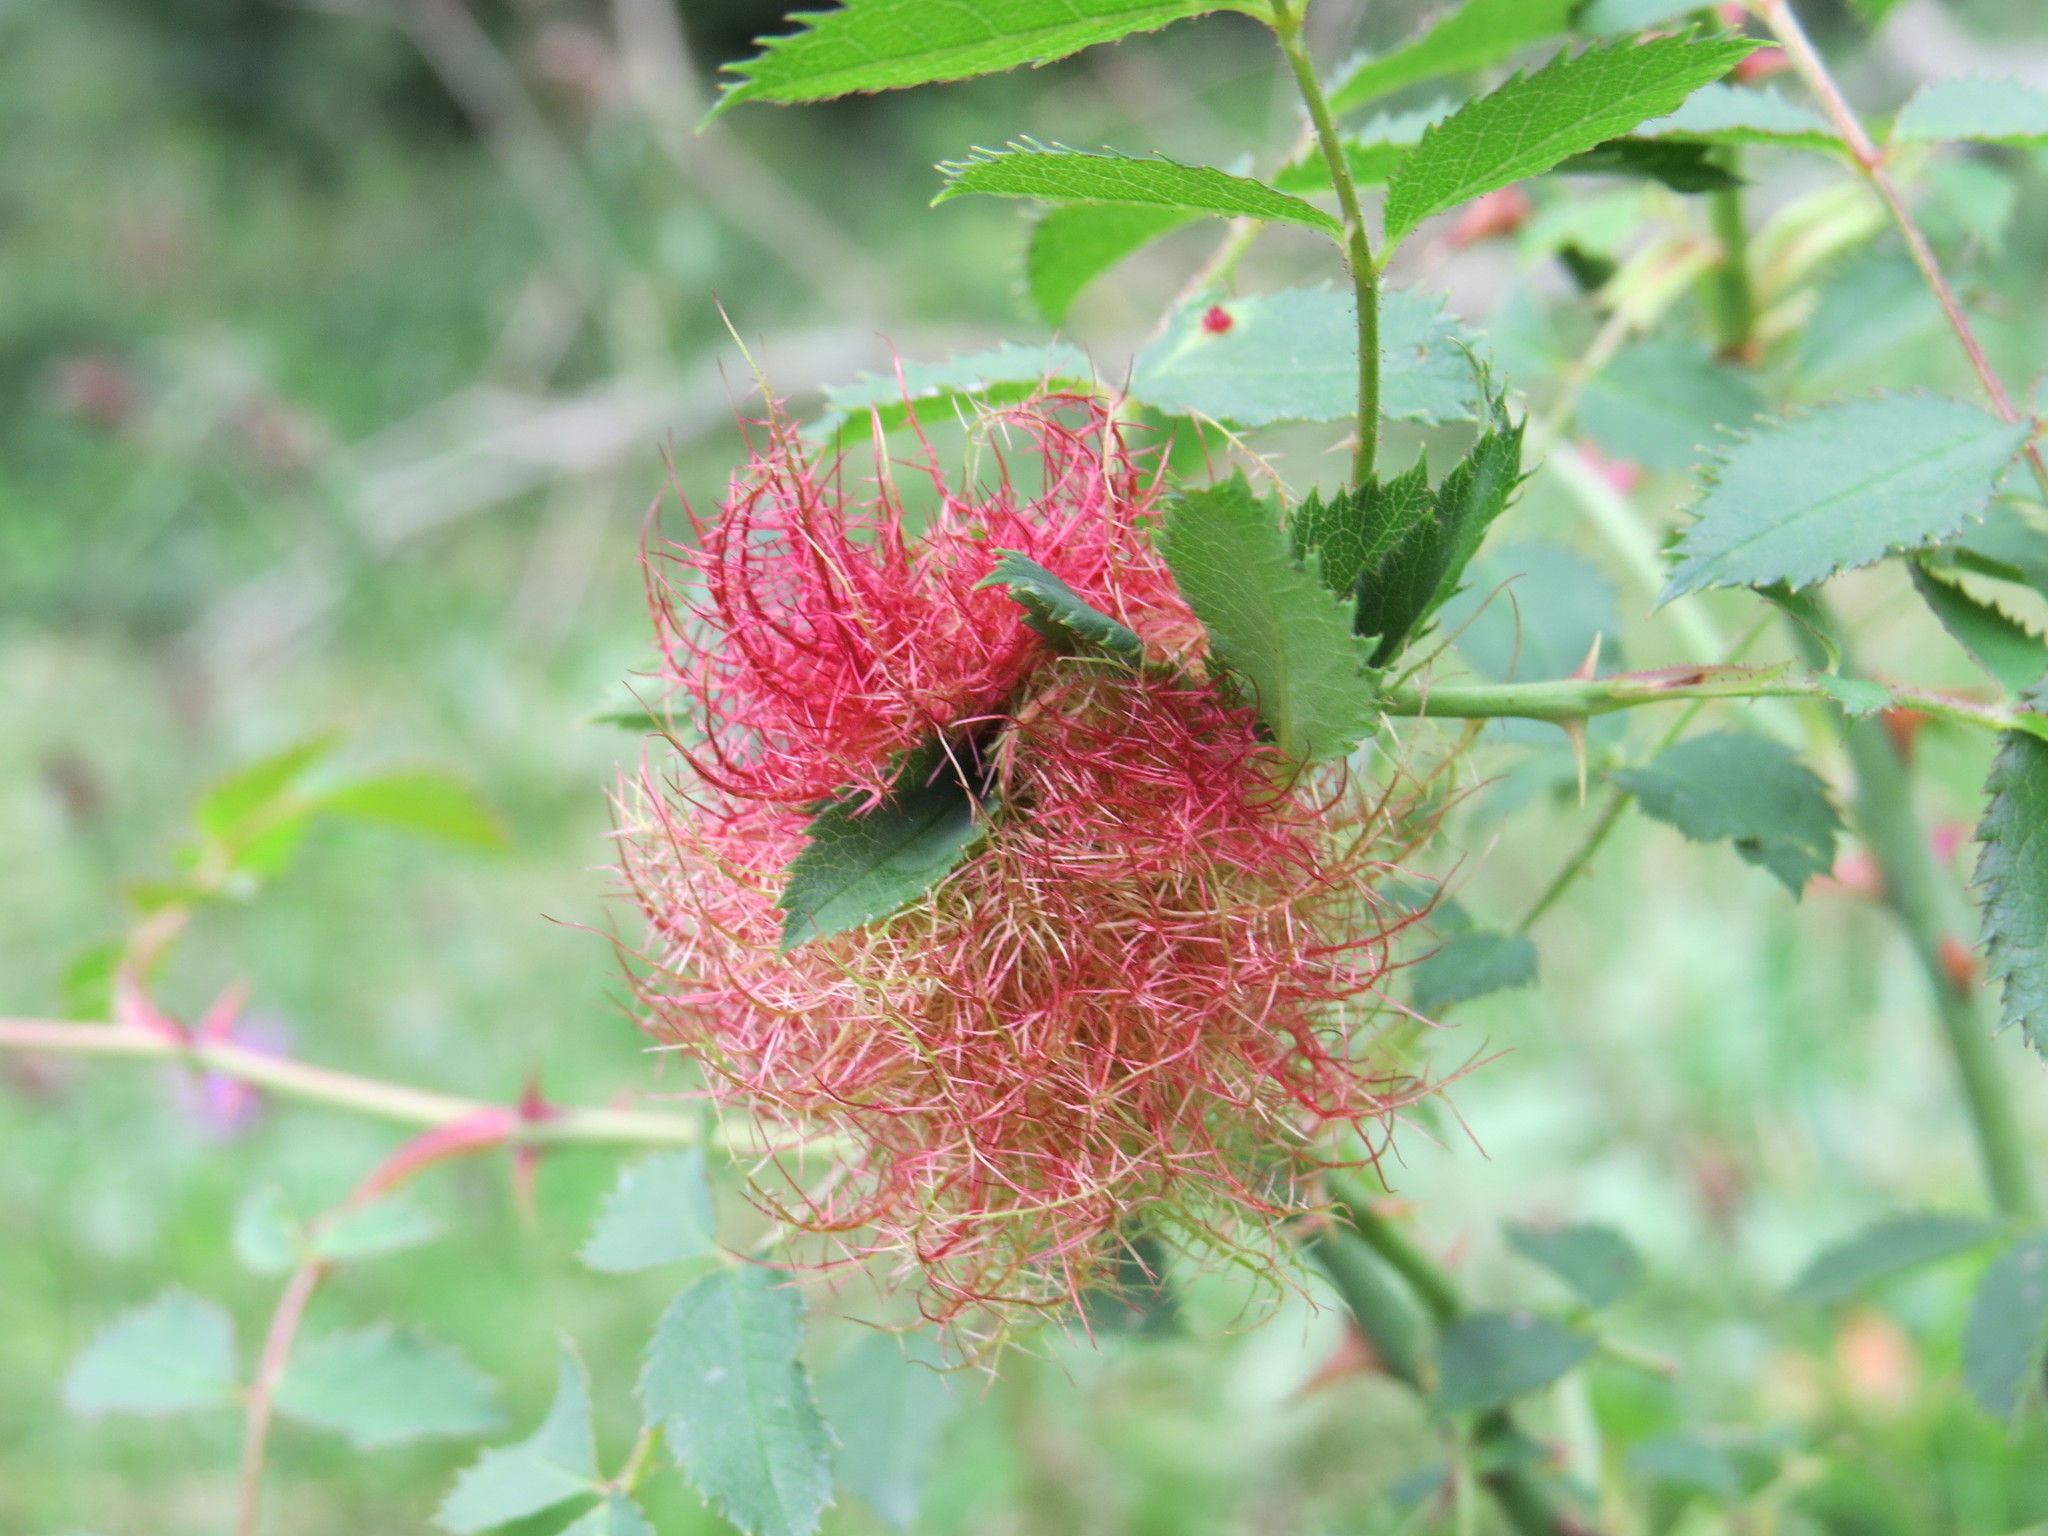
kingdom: Animalia
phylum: Arthropoda
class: Insecta
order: Hymenoptera
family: Cynipidae
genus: Diplolepis
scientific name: Diplolepis rosae
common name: Bedeguar gall
